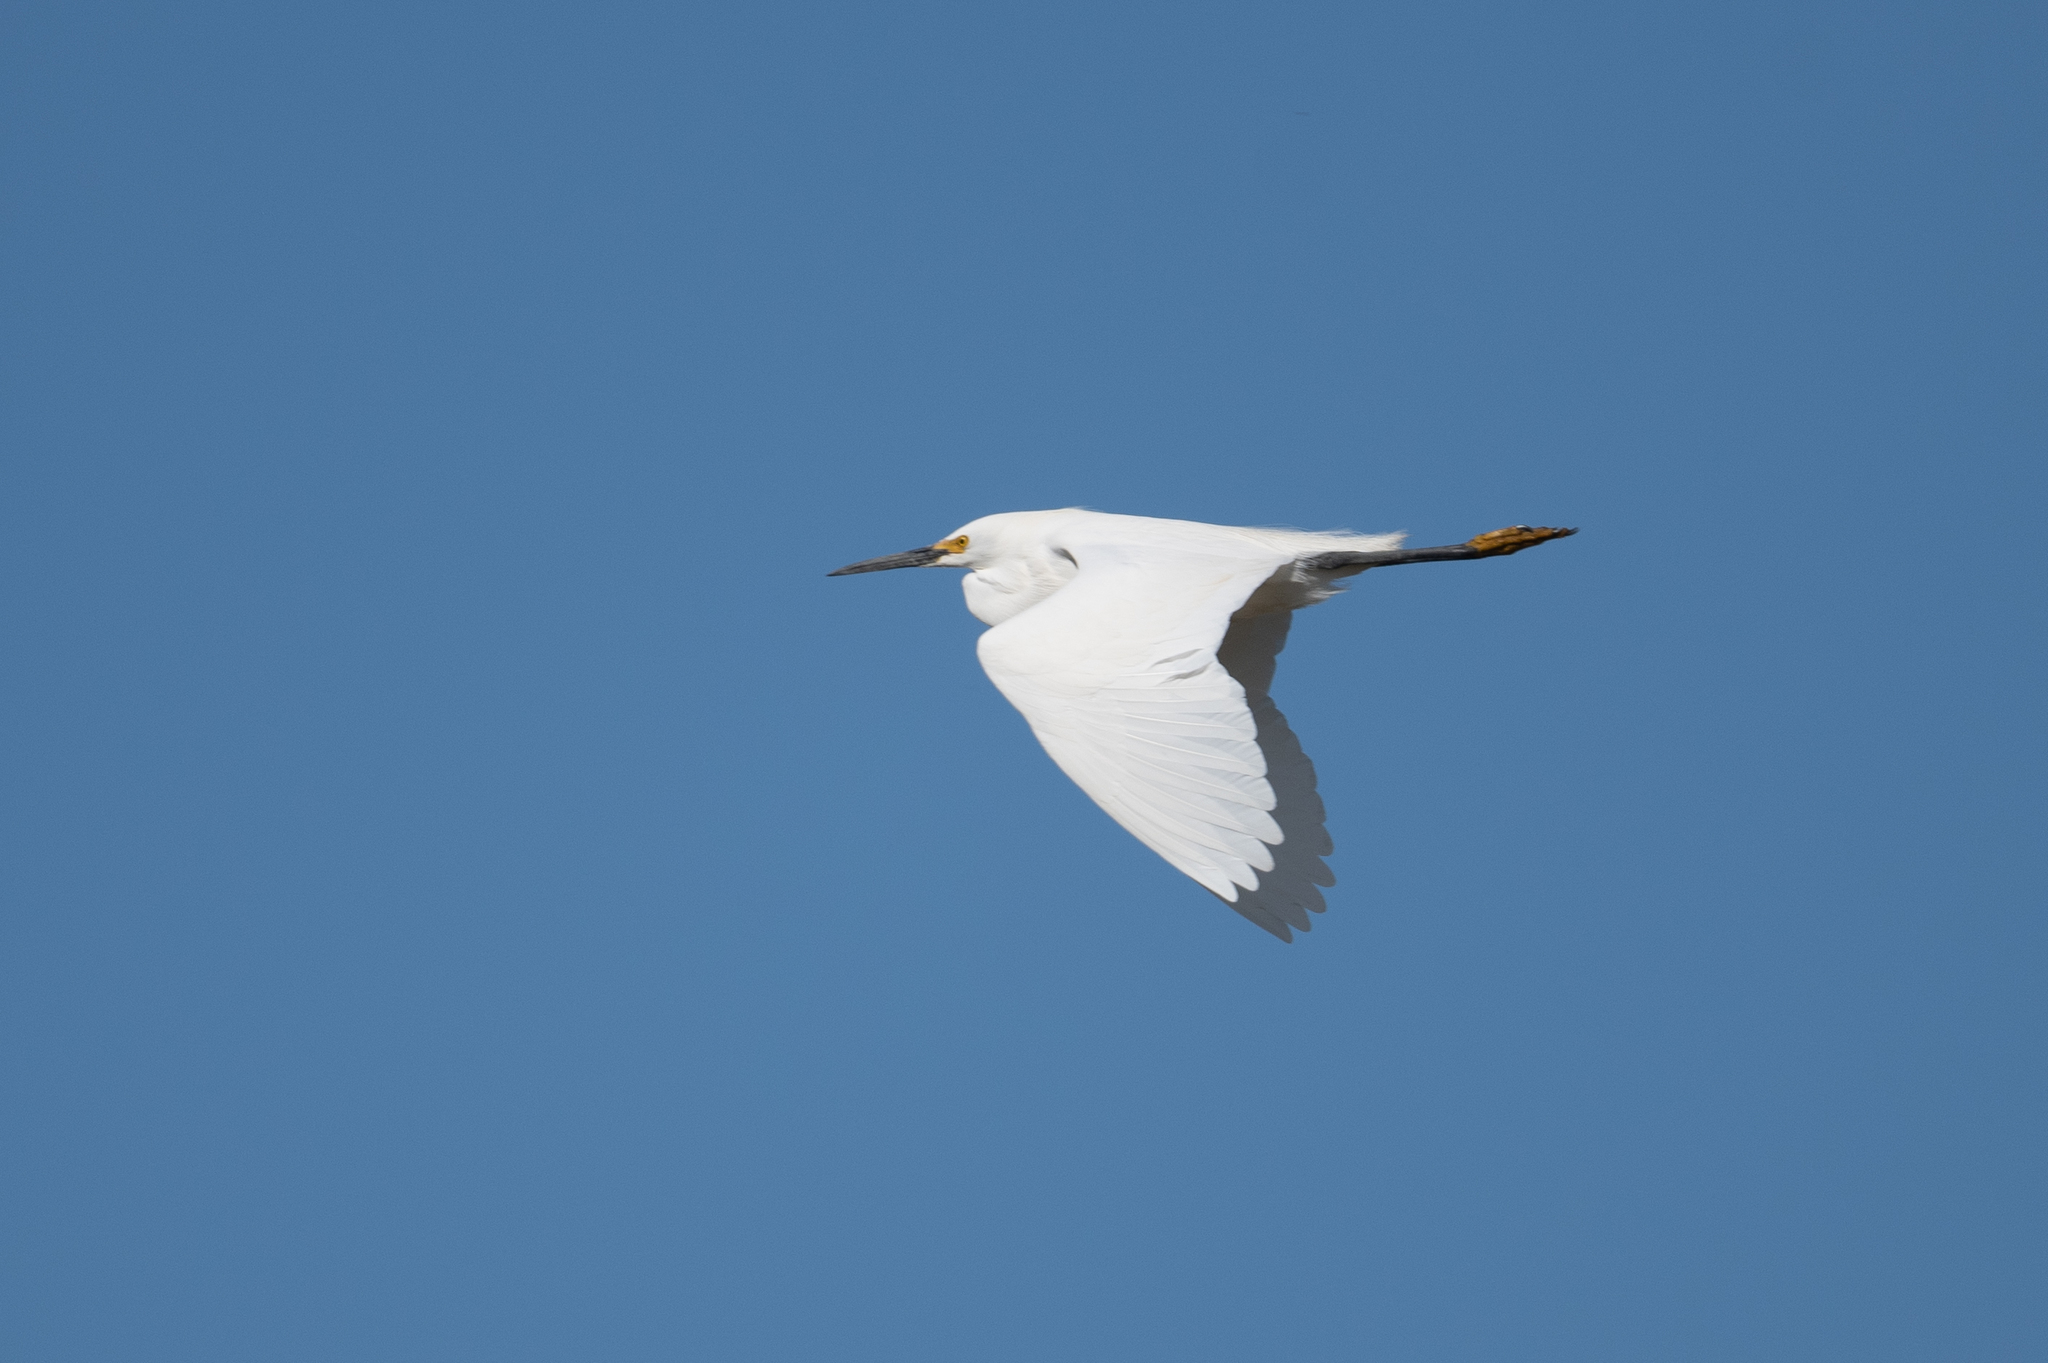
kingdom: Animalia
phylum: Chordata
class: Aves
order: Pelecaniformes
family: Ardeidae
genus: Egretta
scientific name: Egretta thula
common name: Snowy egret
